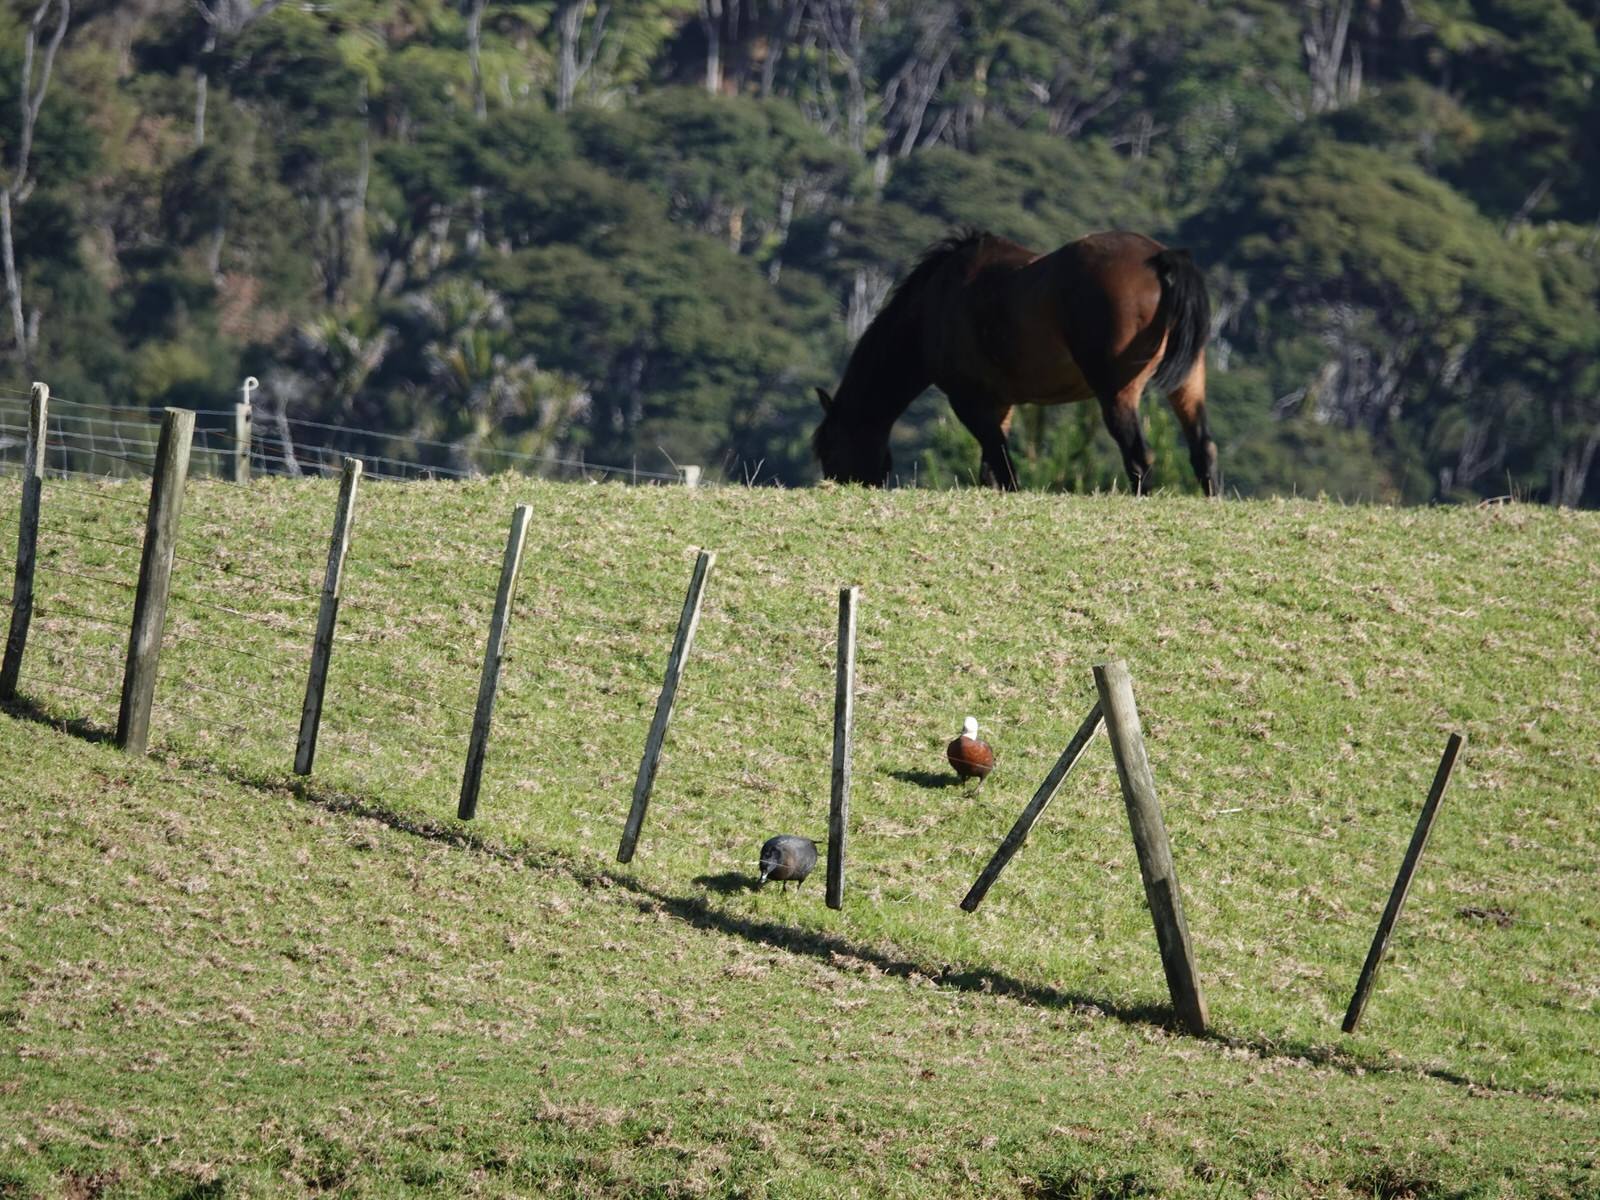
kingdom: Animalia
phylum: Chordata
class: Aves
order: Anseriformes
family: Anatidae
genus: Tadorna
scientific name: Tadorna variegata
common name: Paradise shelduck
